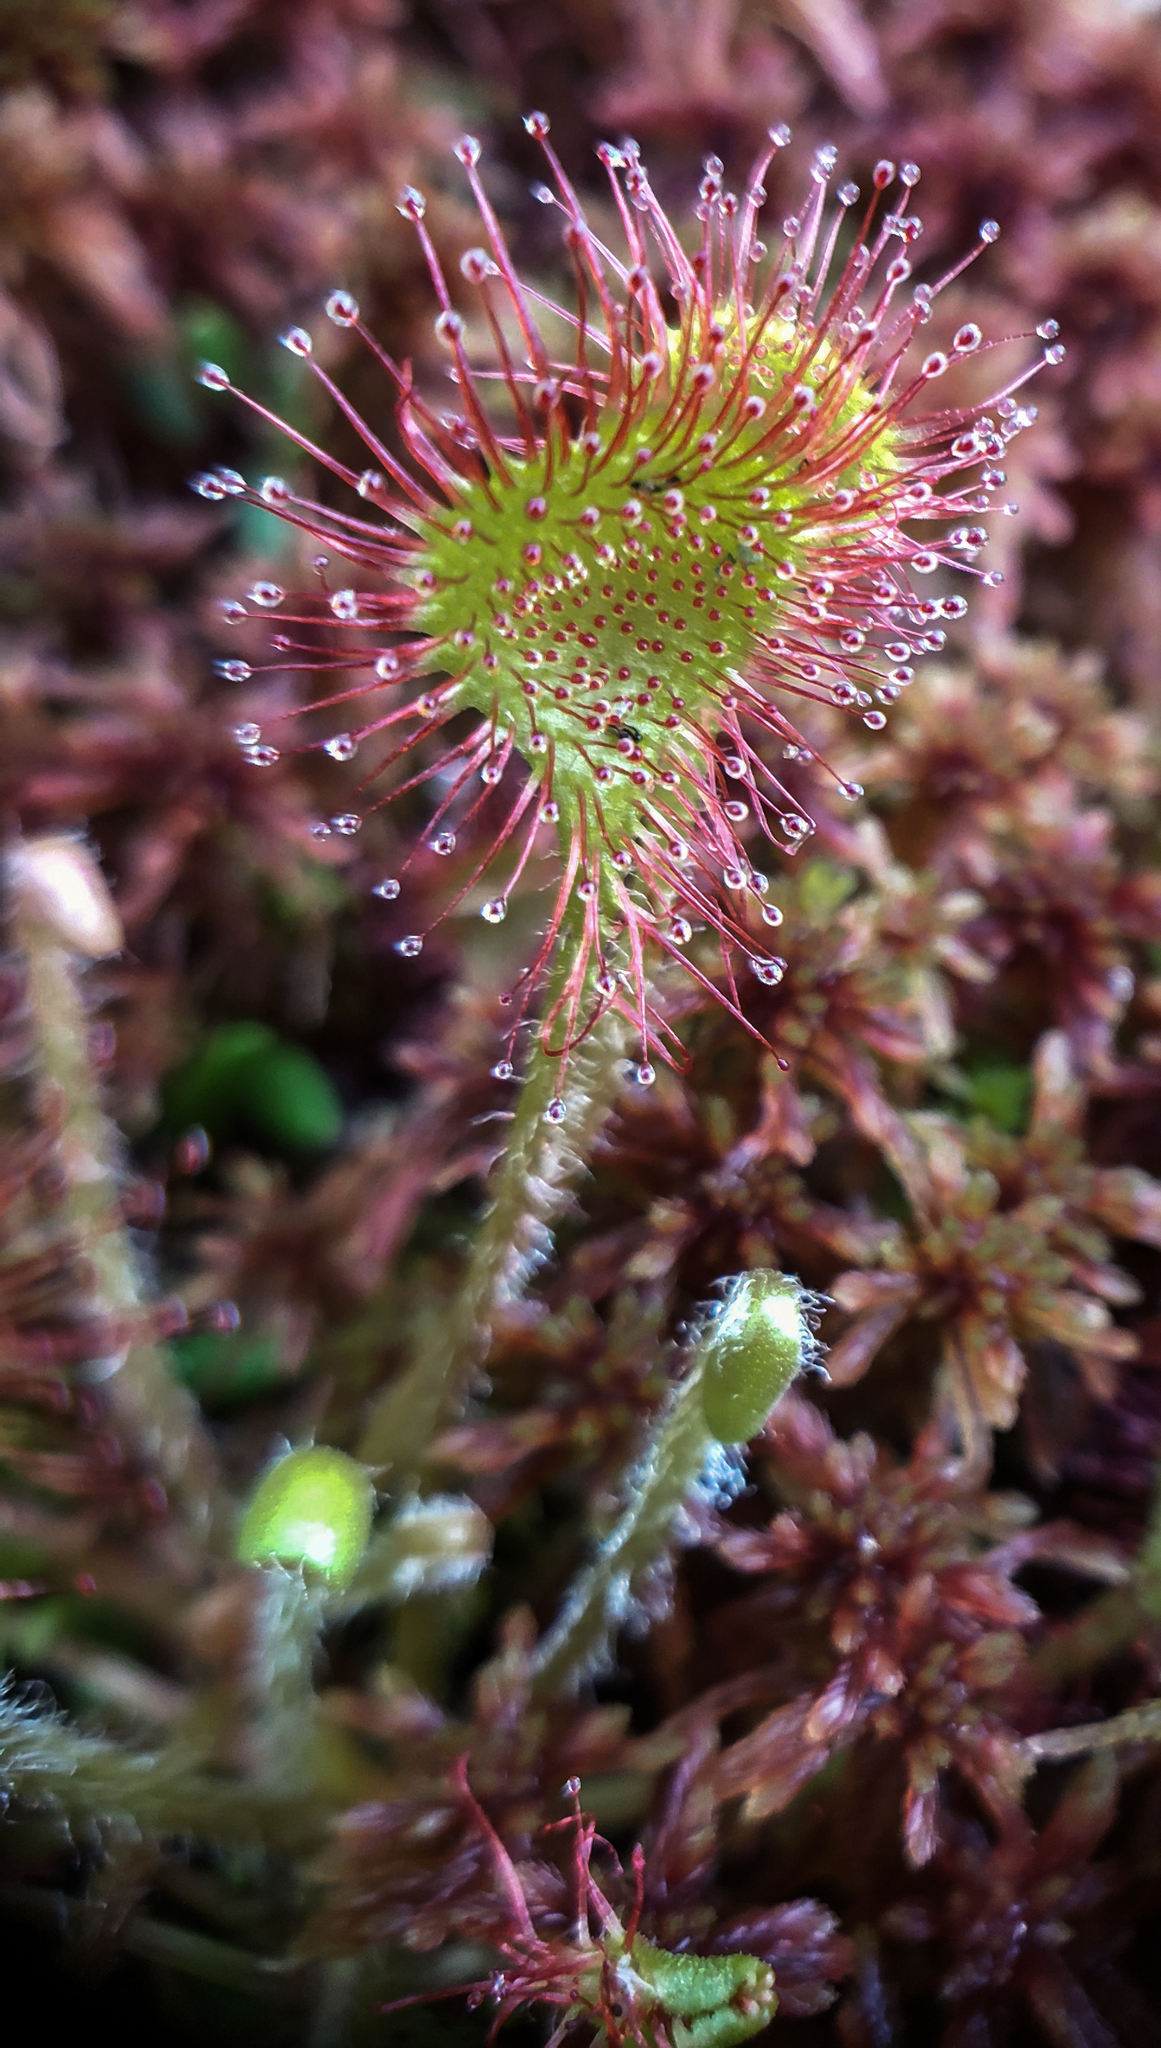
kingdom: Plantae
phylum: Tracheophyta
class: Magnoliopsida
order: Caryophyllales
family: Droseraceae
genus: Drosera
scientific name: Drosera rotundifolia
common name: Round-leaved sundew
